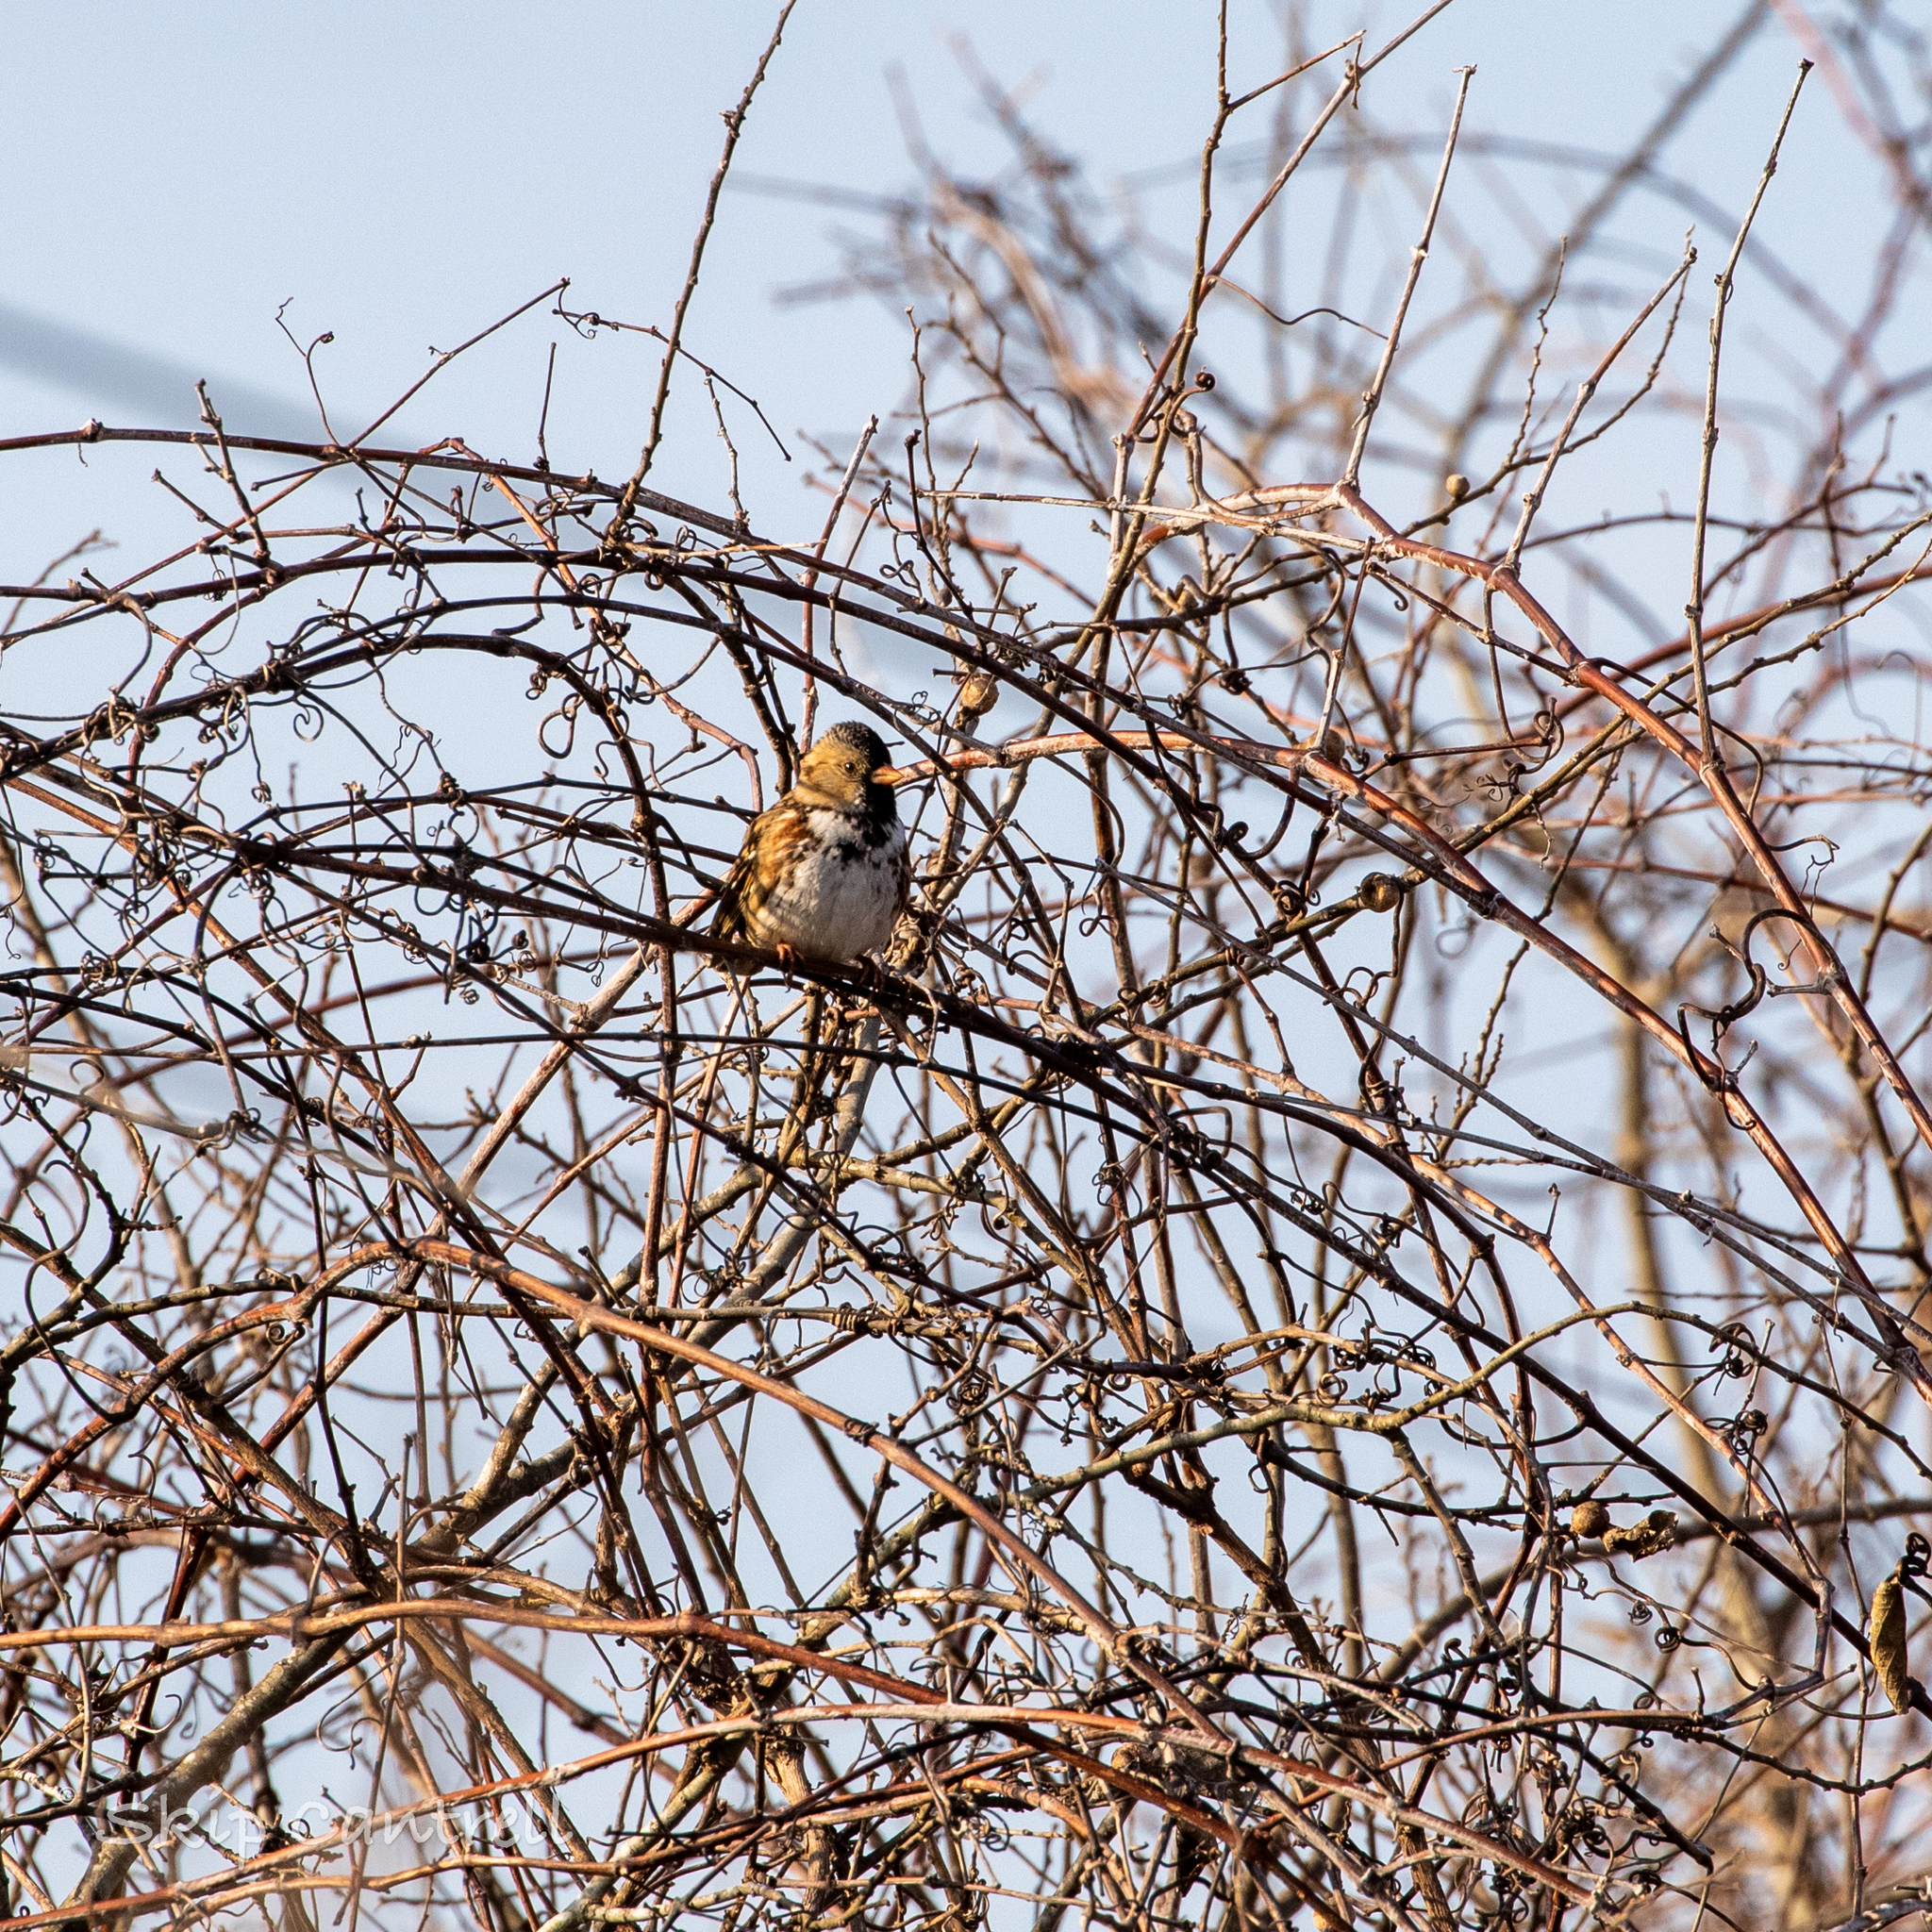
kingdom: Animalia
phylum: Chordata
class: Aves
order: Passeriformes
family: Passerellidae
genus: Zonotrichia
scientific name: Zonotrichia querula
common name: Harris's sparrow
